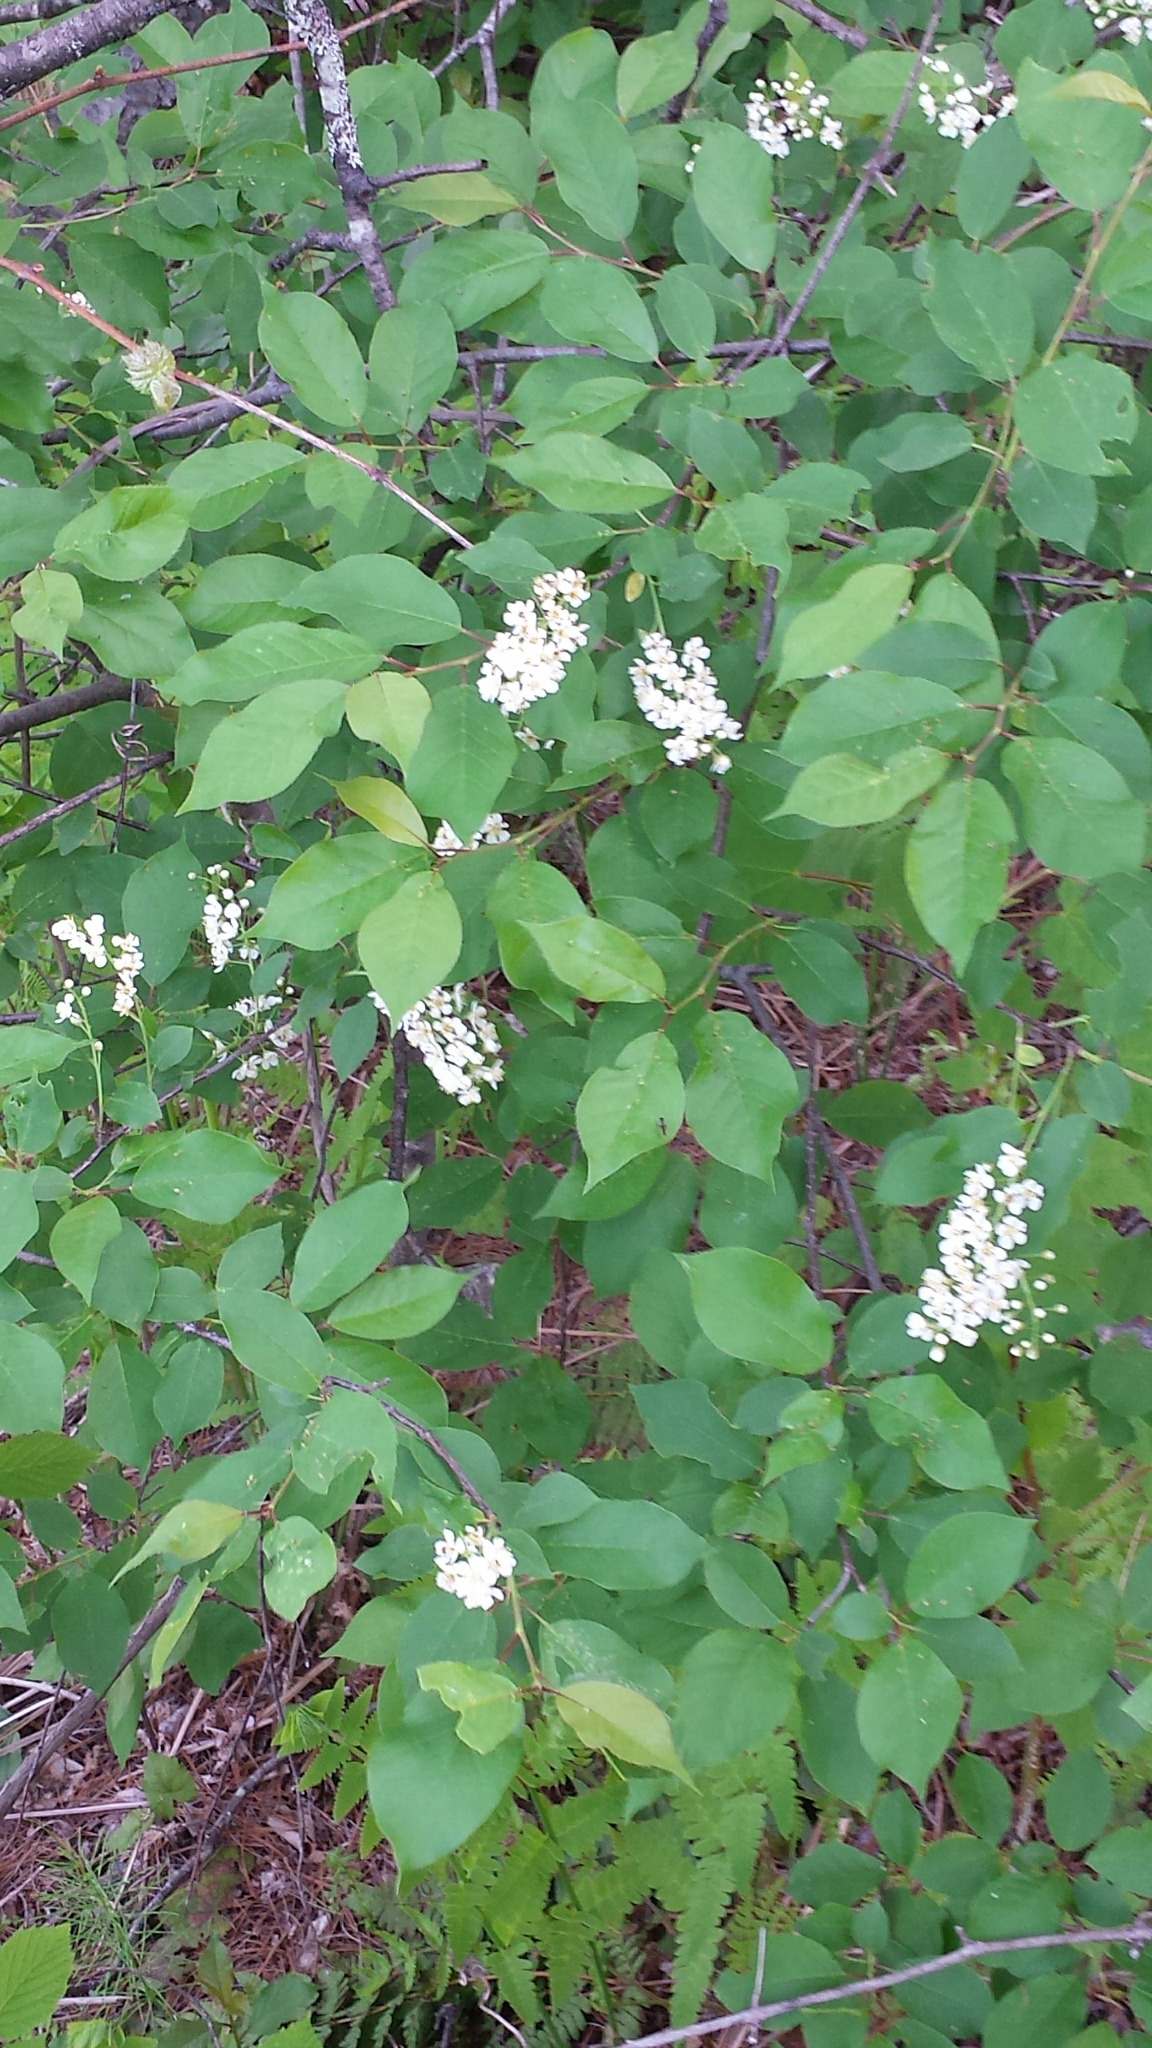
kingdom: Plantae
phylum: Tracheophyta
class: Magnoliopsida
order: Rosales
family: Rosaceae
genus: Prunus
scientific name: Prunus virginiana
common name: Chokecherry
